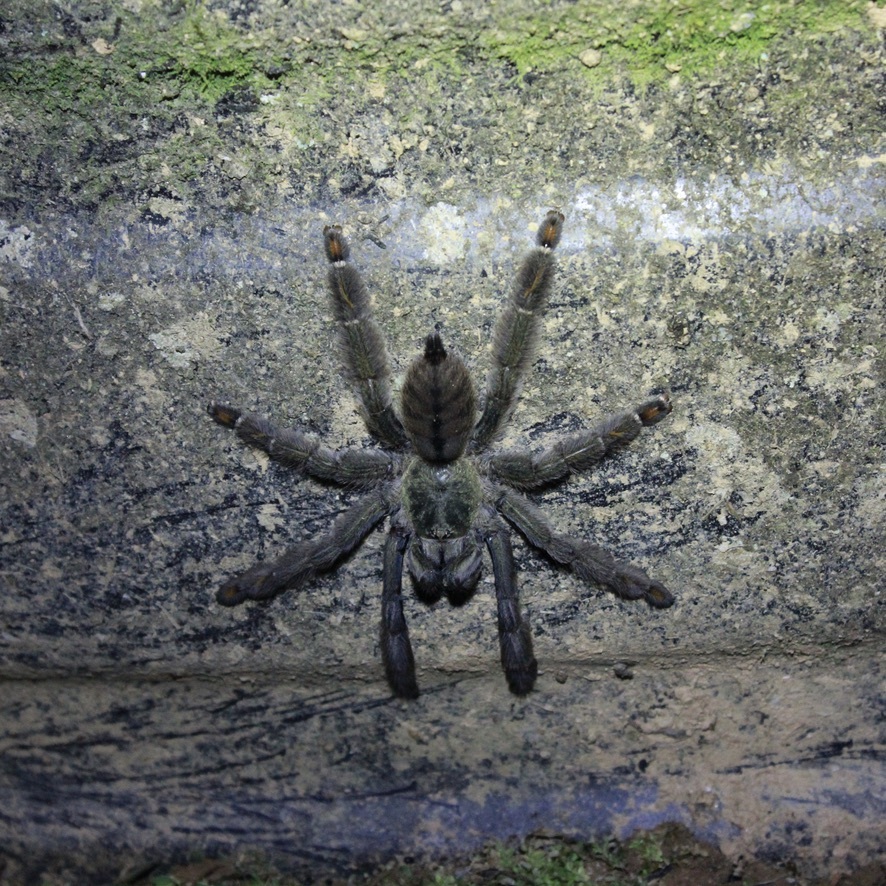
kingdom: Animalia
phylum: Arthropoda
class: Arachnida
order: Araneae
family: Theraphosidae
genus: Psalmopoeus
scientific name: Psalmopoeus cambridgei
